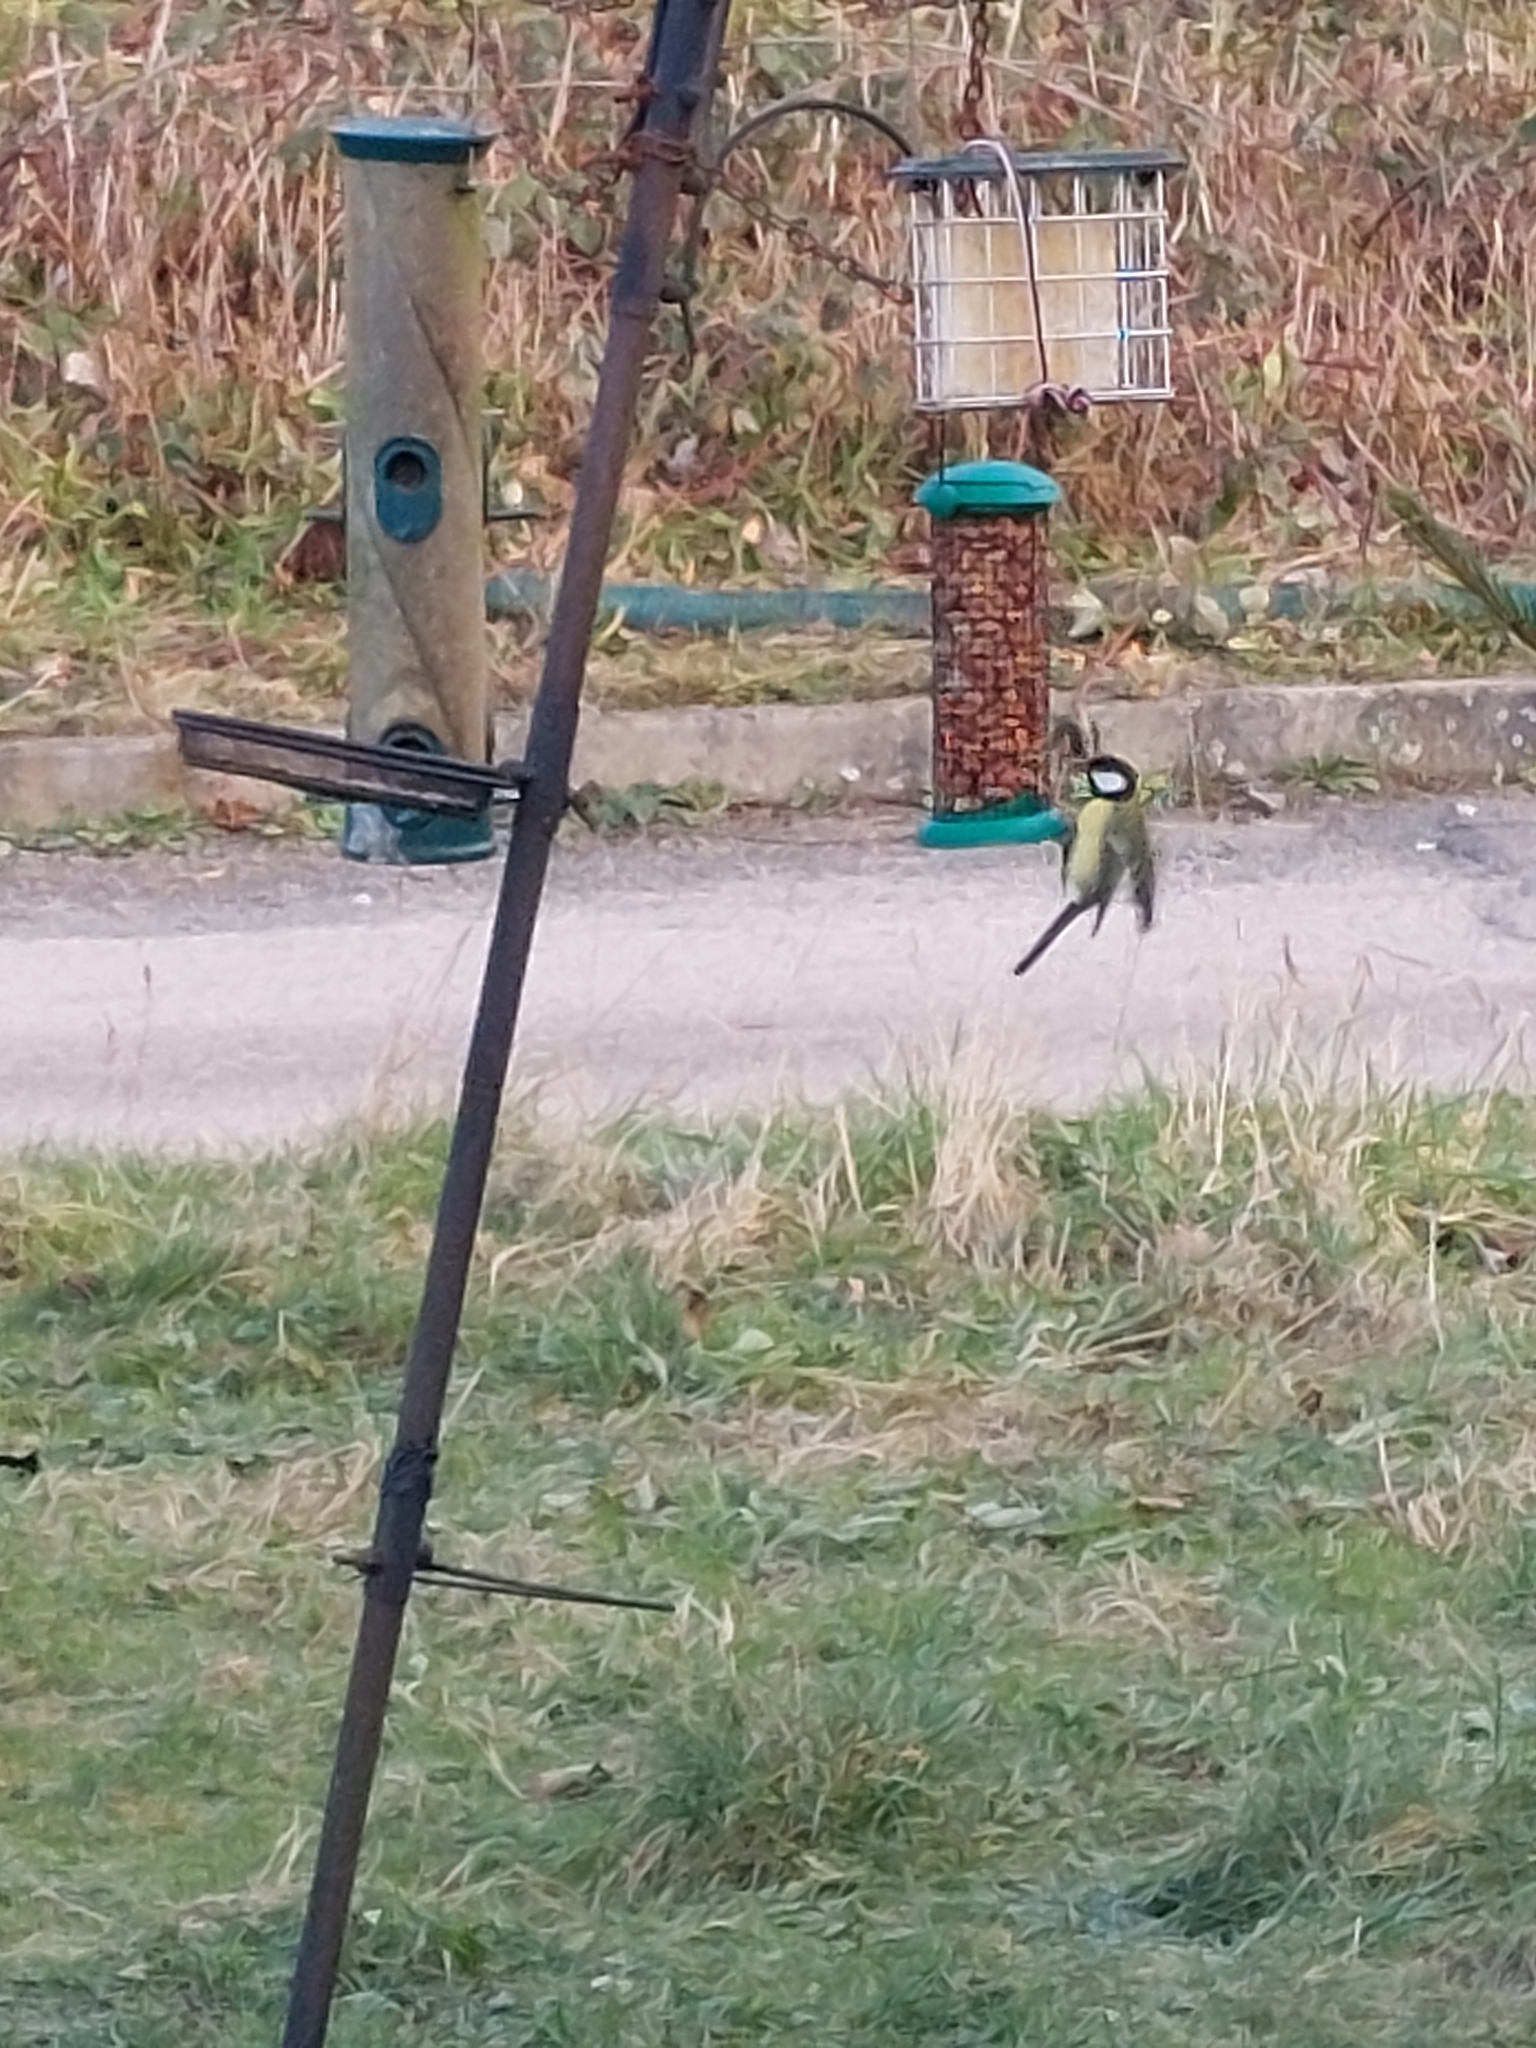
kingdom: Animalia
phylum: Chordata
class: Aves
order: Passeriformes
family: Paridae
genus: Parus
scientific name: Parus major
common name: Great tit
